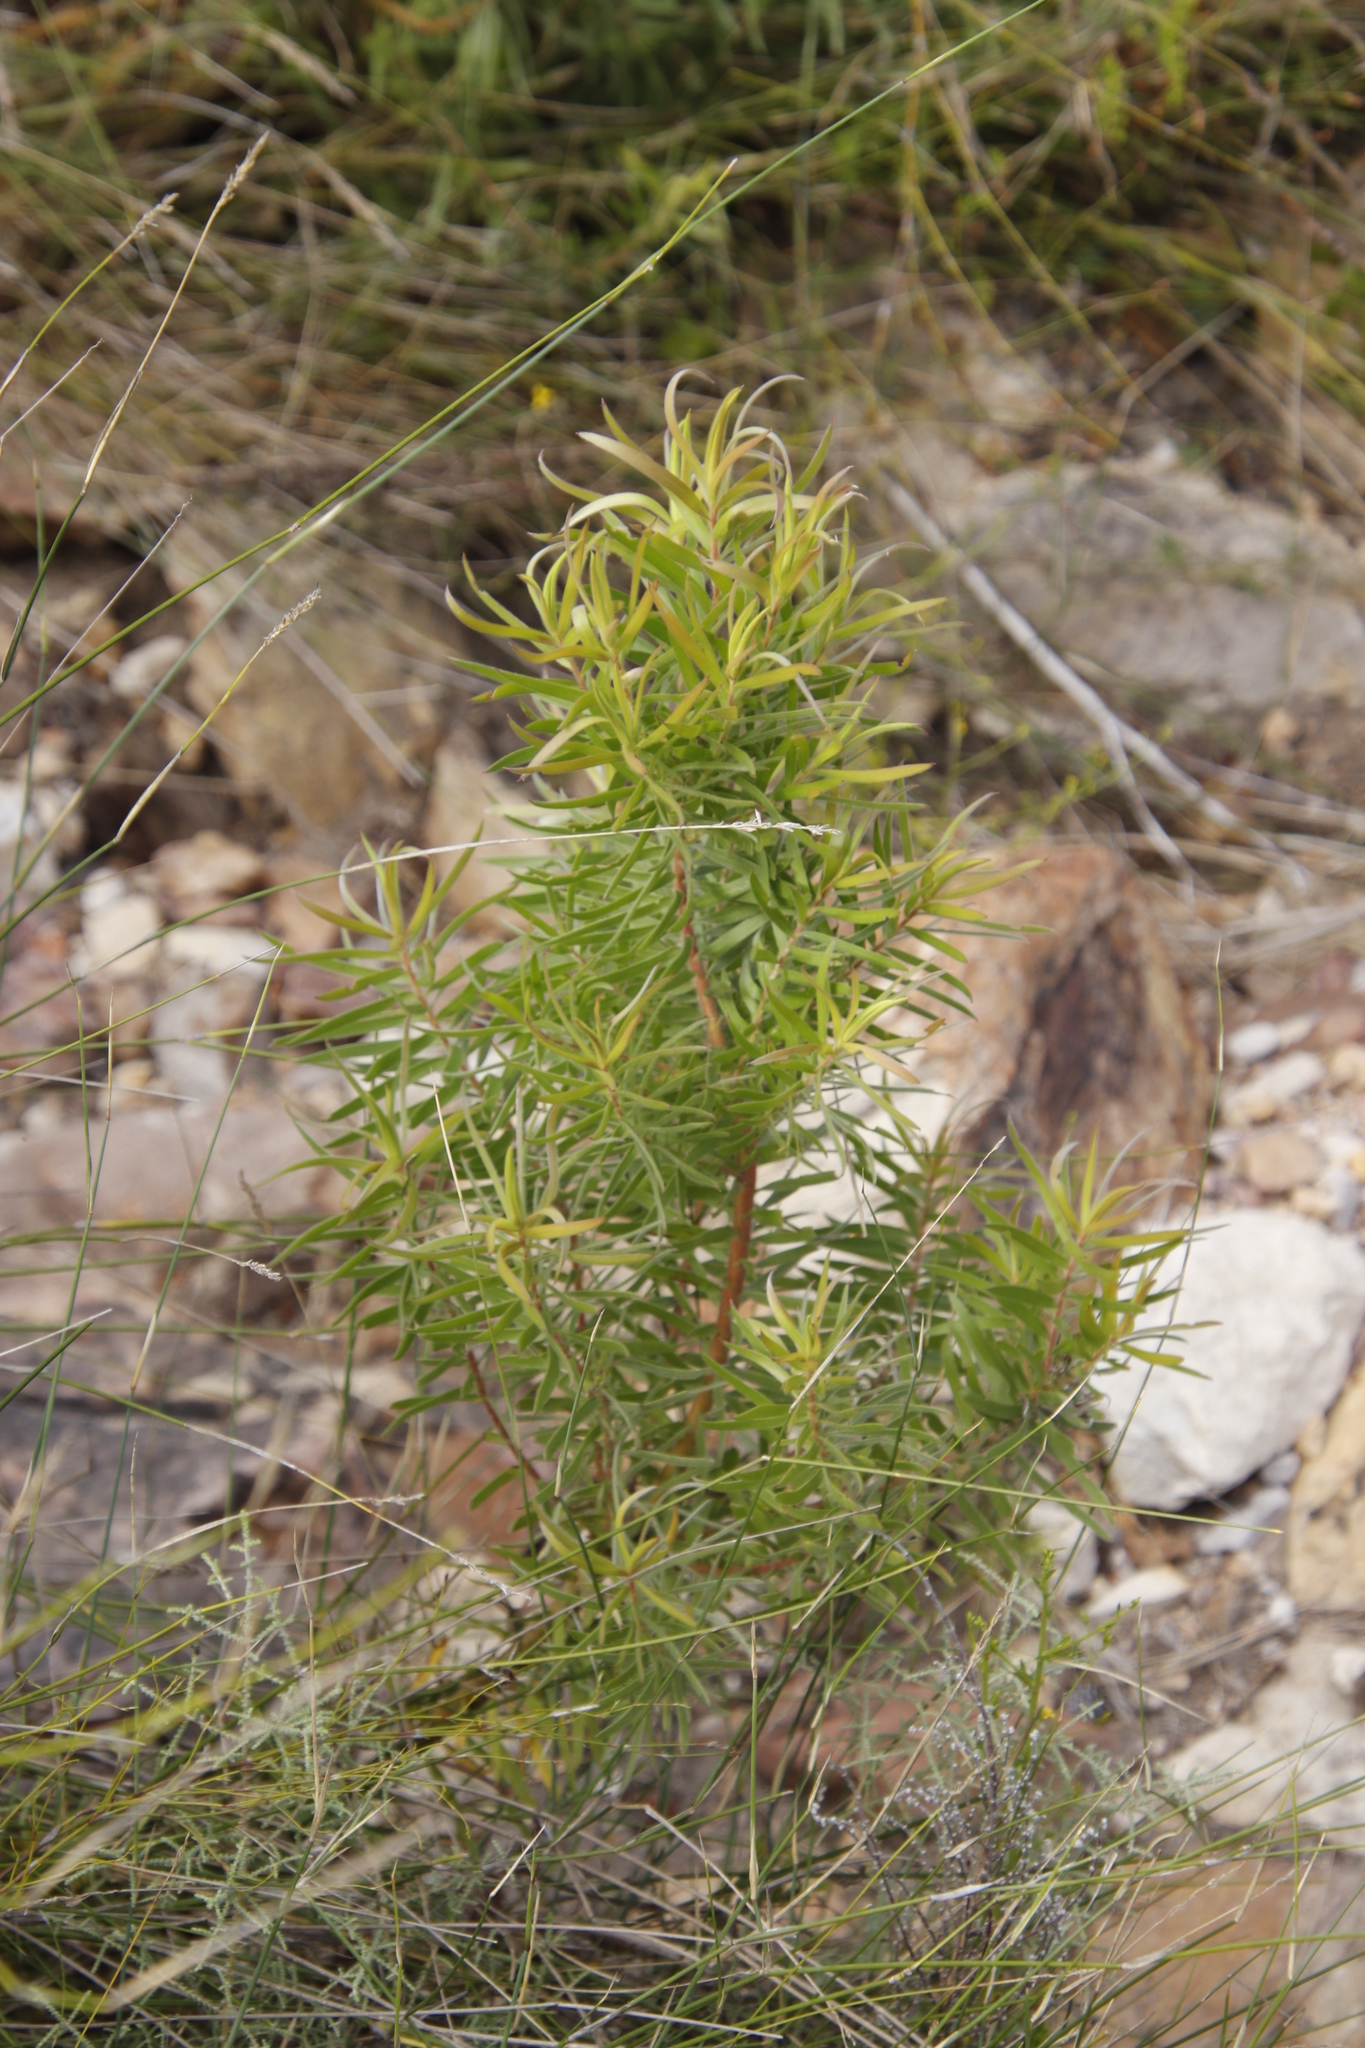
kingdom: Plantae
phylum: Tracheophyta
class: Magnoliopsida
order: Proteales
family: Proteaceae
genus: Leucadendron
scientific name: Leucadendron salicifolium
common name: Common stream conebush
